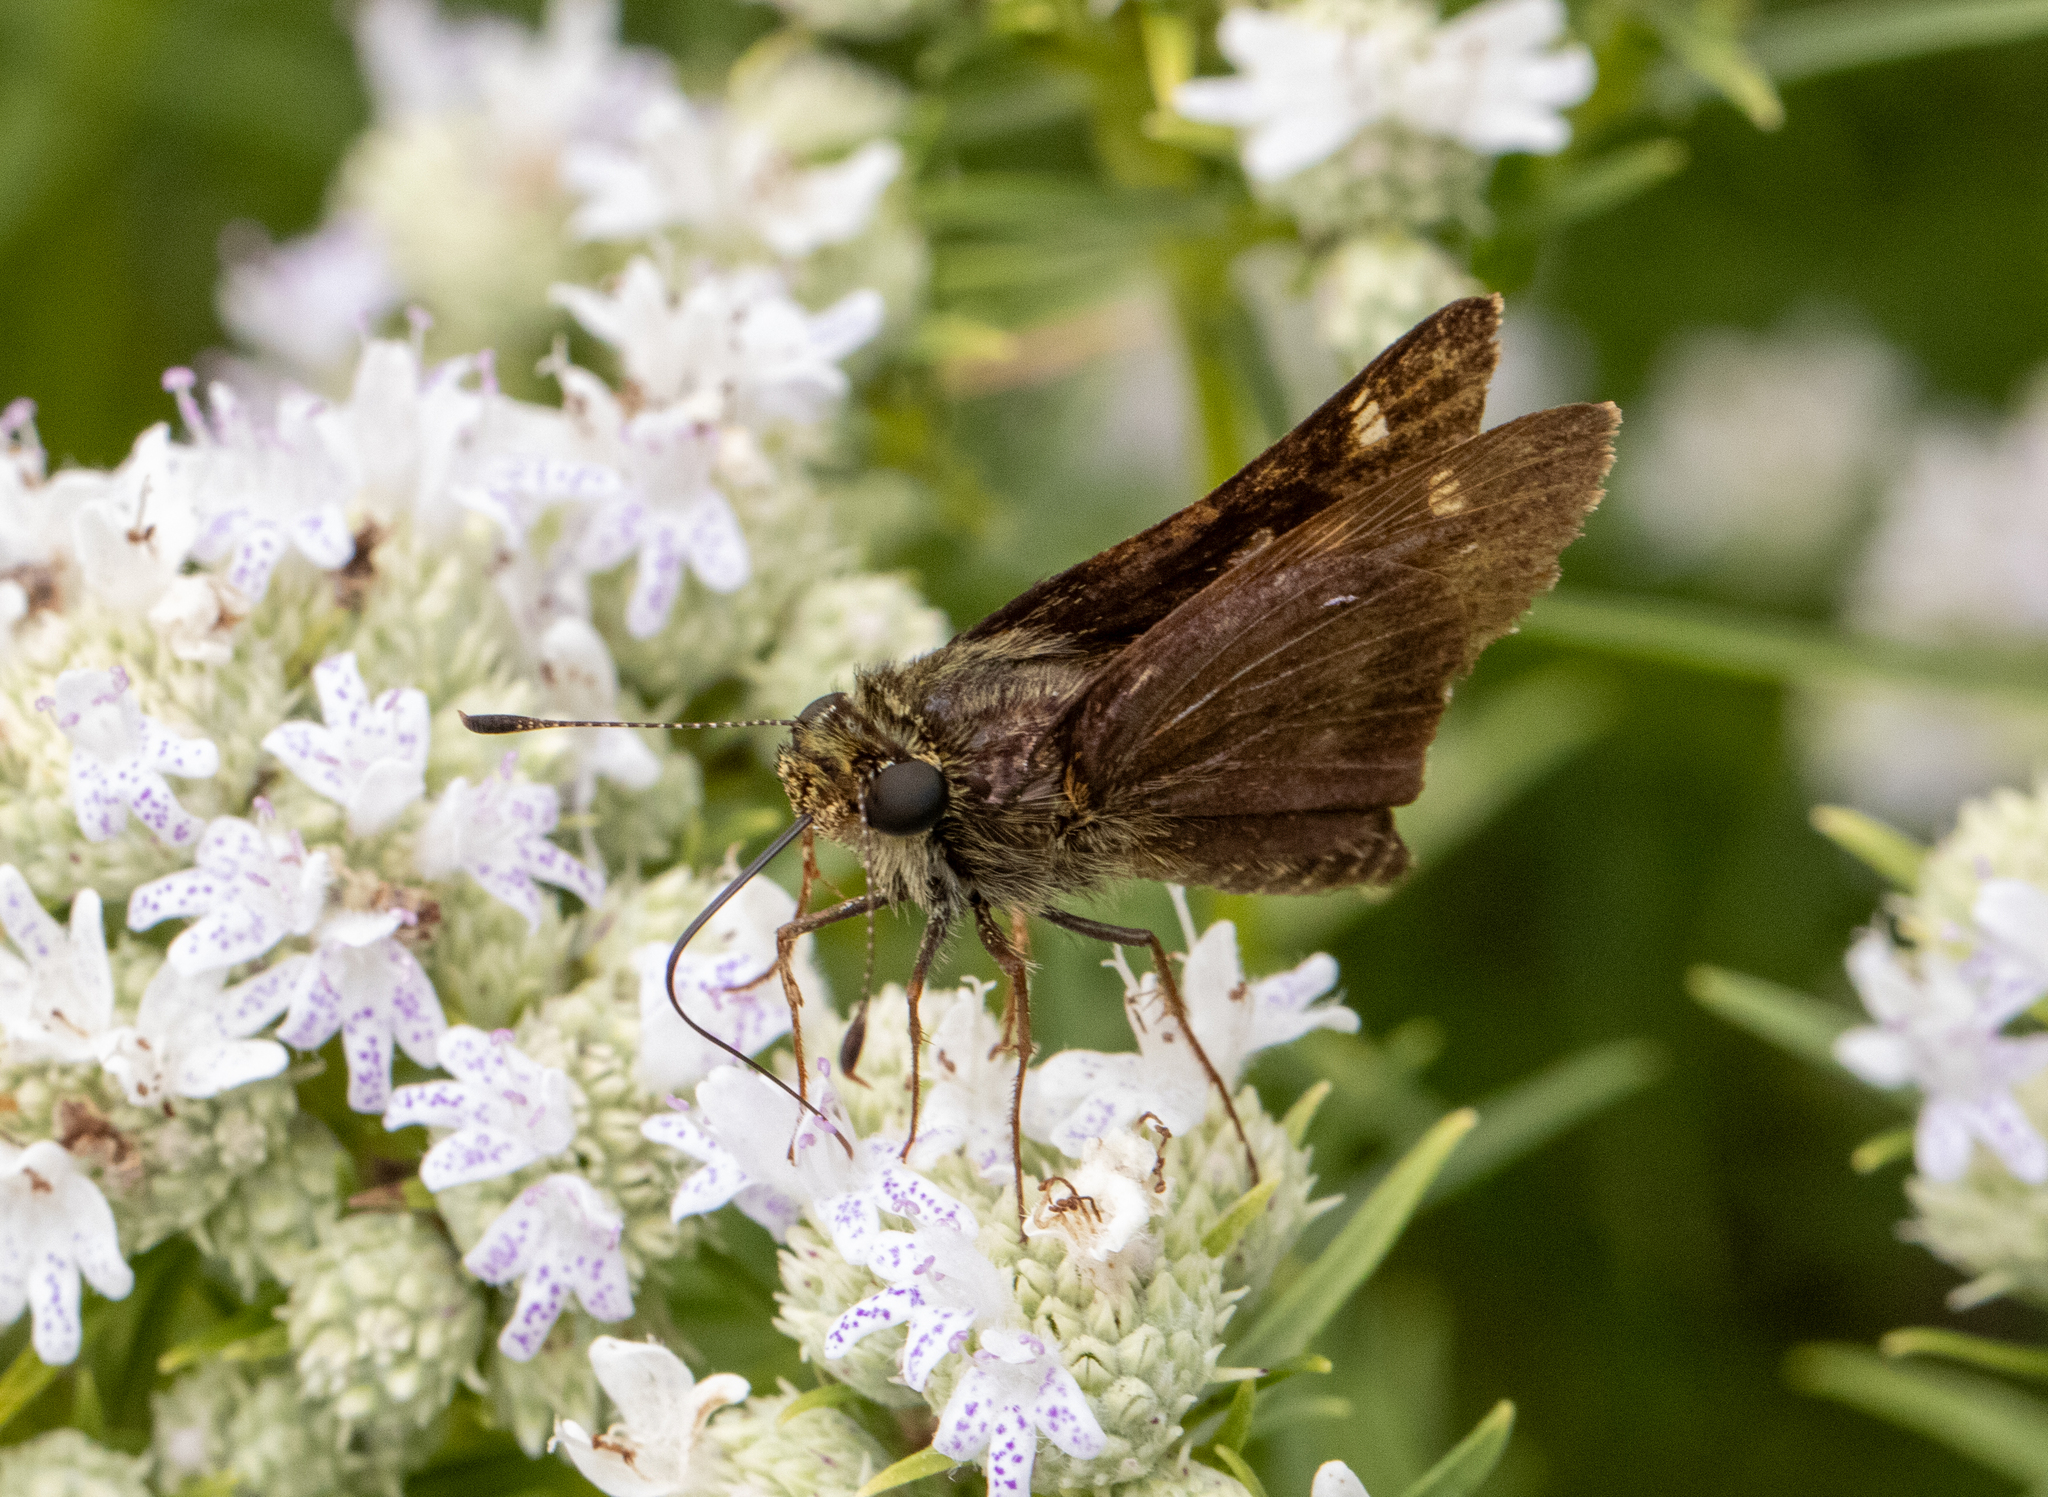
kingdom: Animalia
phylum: Arthropoda
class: Insecta
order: Lepidoptera
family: Hesperiidae
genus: Vernia
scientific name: Vernia verna
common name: Little glassywing
